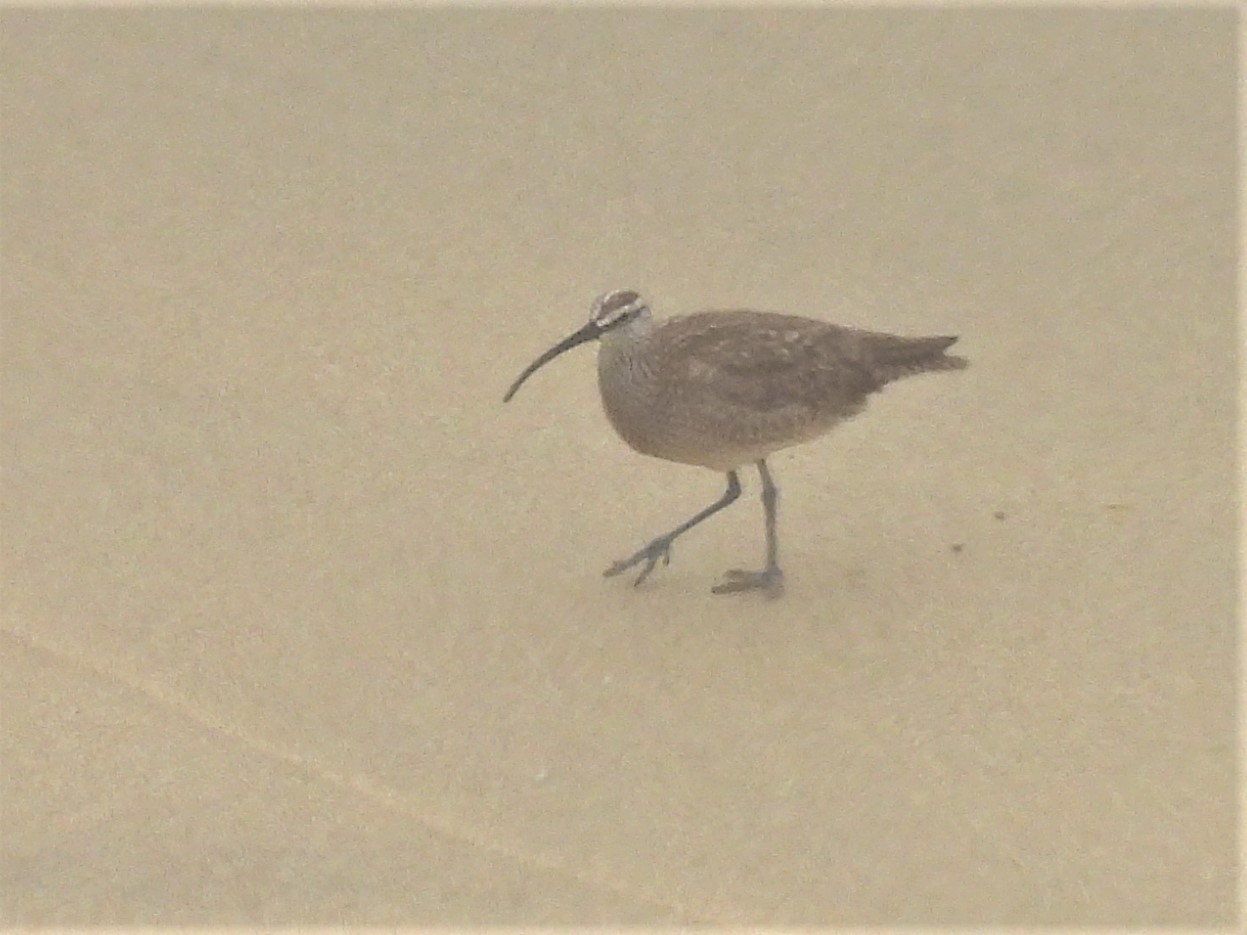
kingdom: Animalia
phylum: Chordata
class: Aves
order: Charadriiformes
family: Scolopacidae
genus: Numenius
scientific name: Numenius phaeopus
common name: Whimbrel
